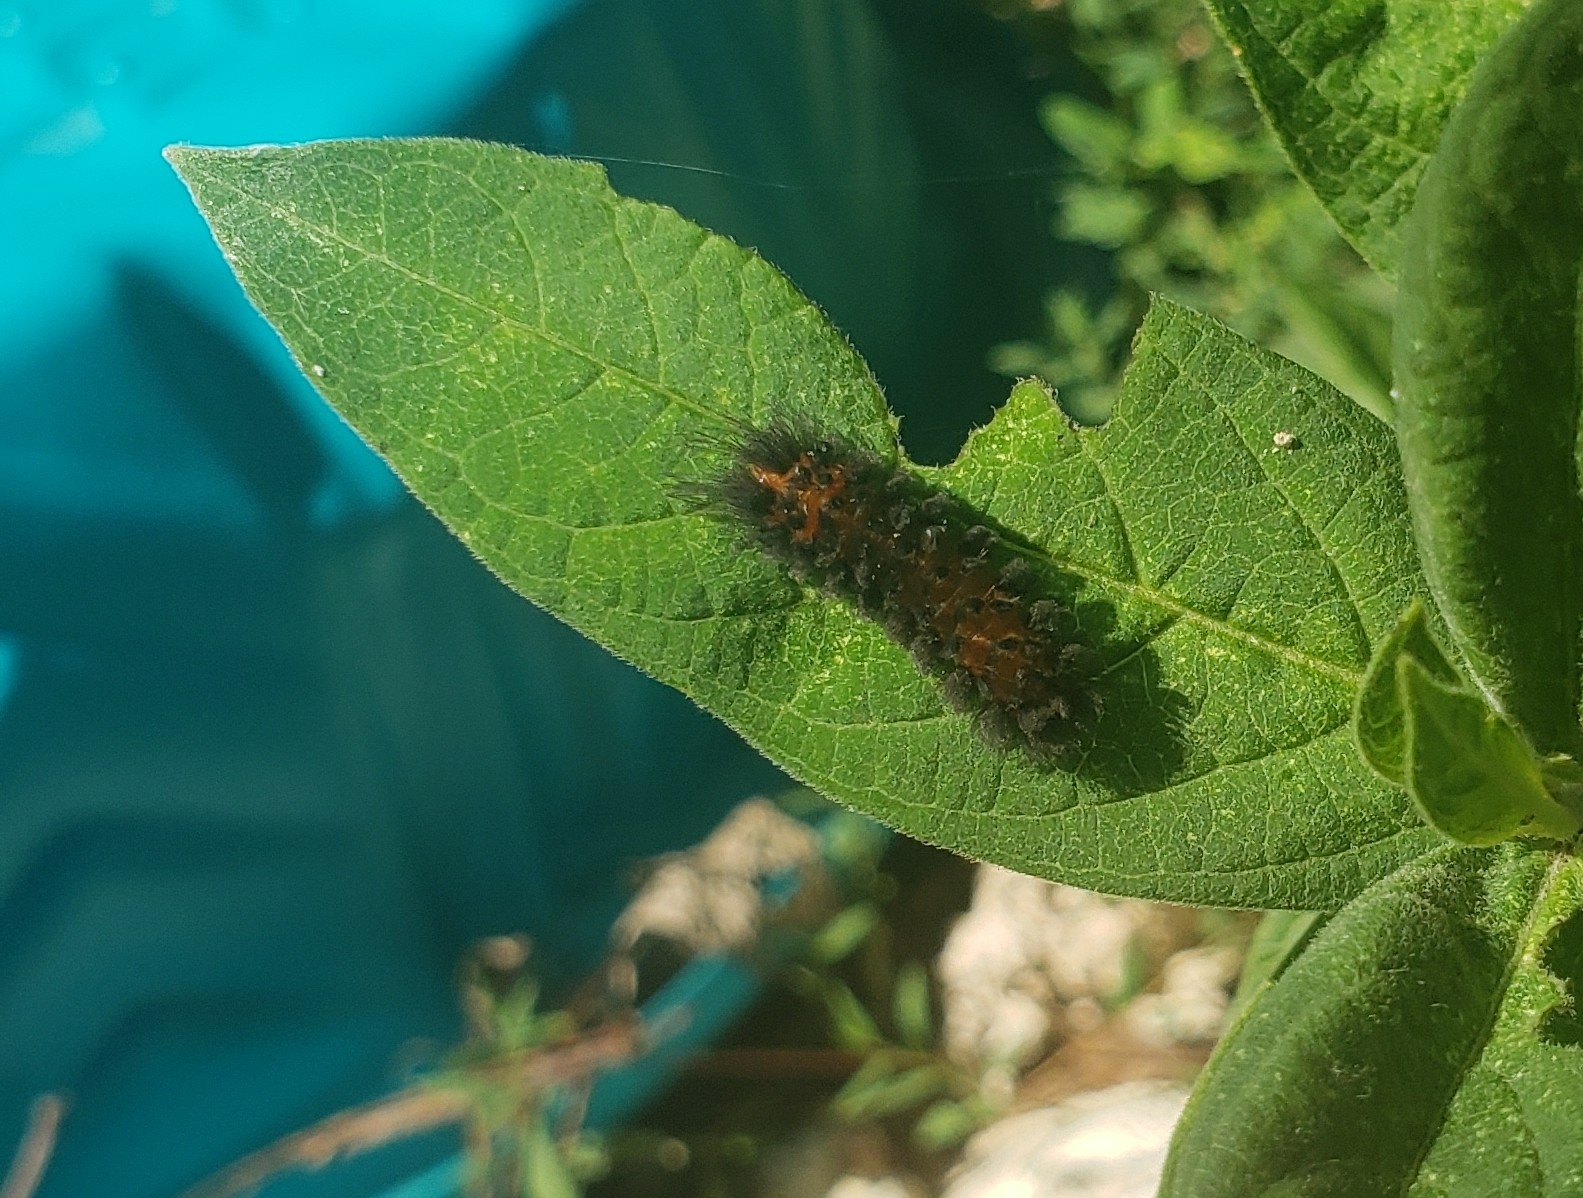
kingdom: Animalia
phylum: Arthropoda
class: Insecta
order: Lepidoptera
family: Erebidae
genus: Cycnia
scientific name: Cycnia collaris
